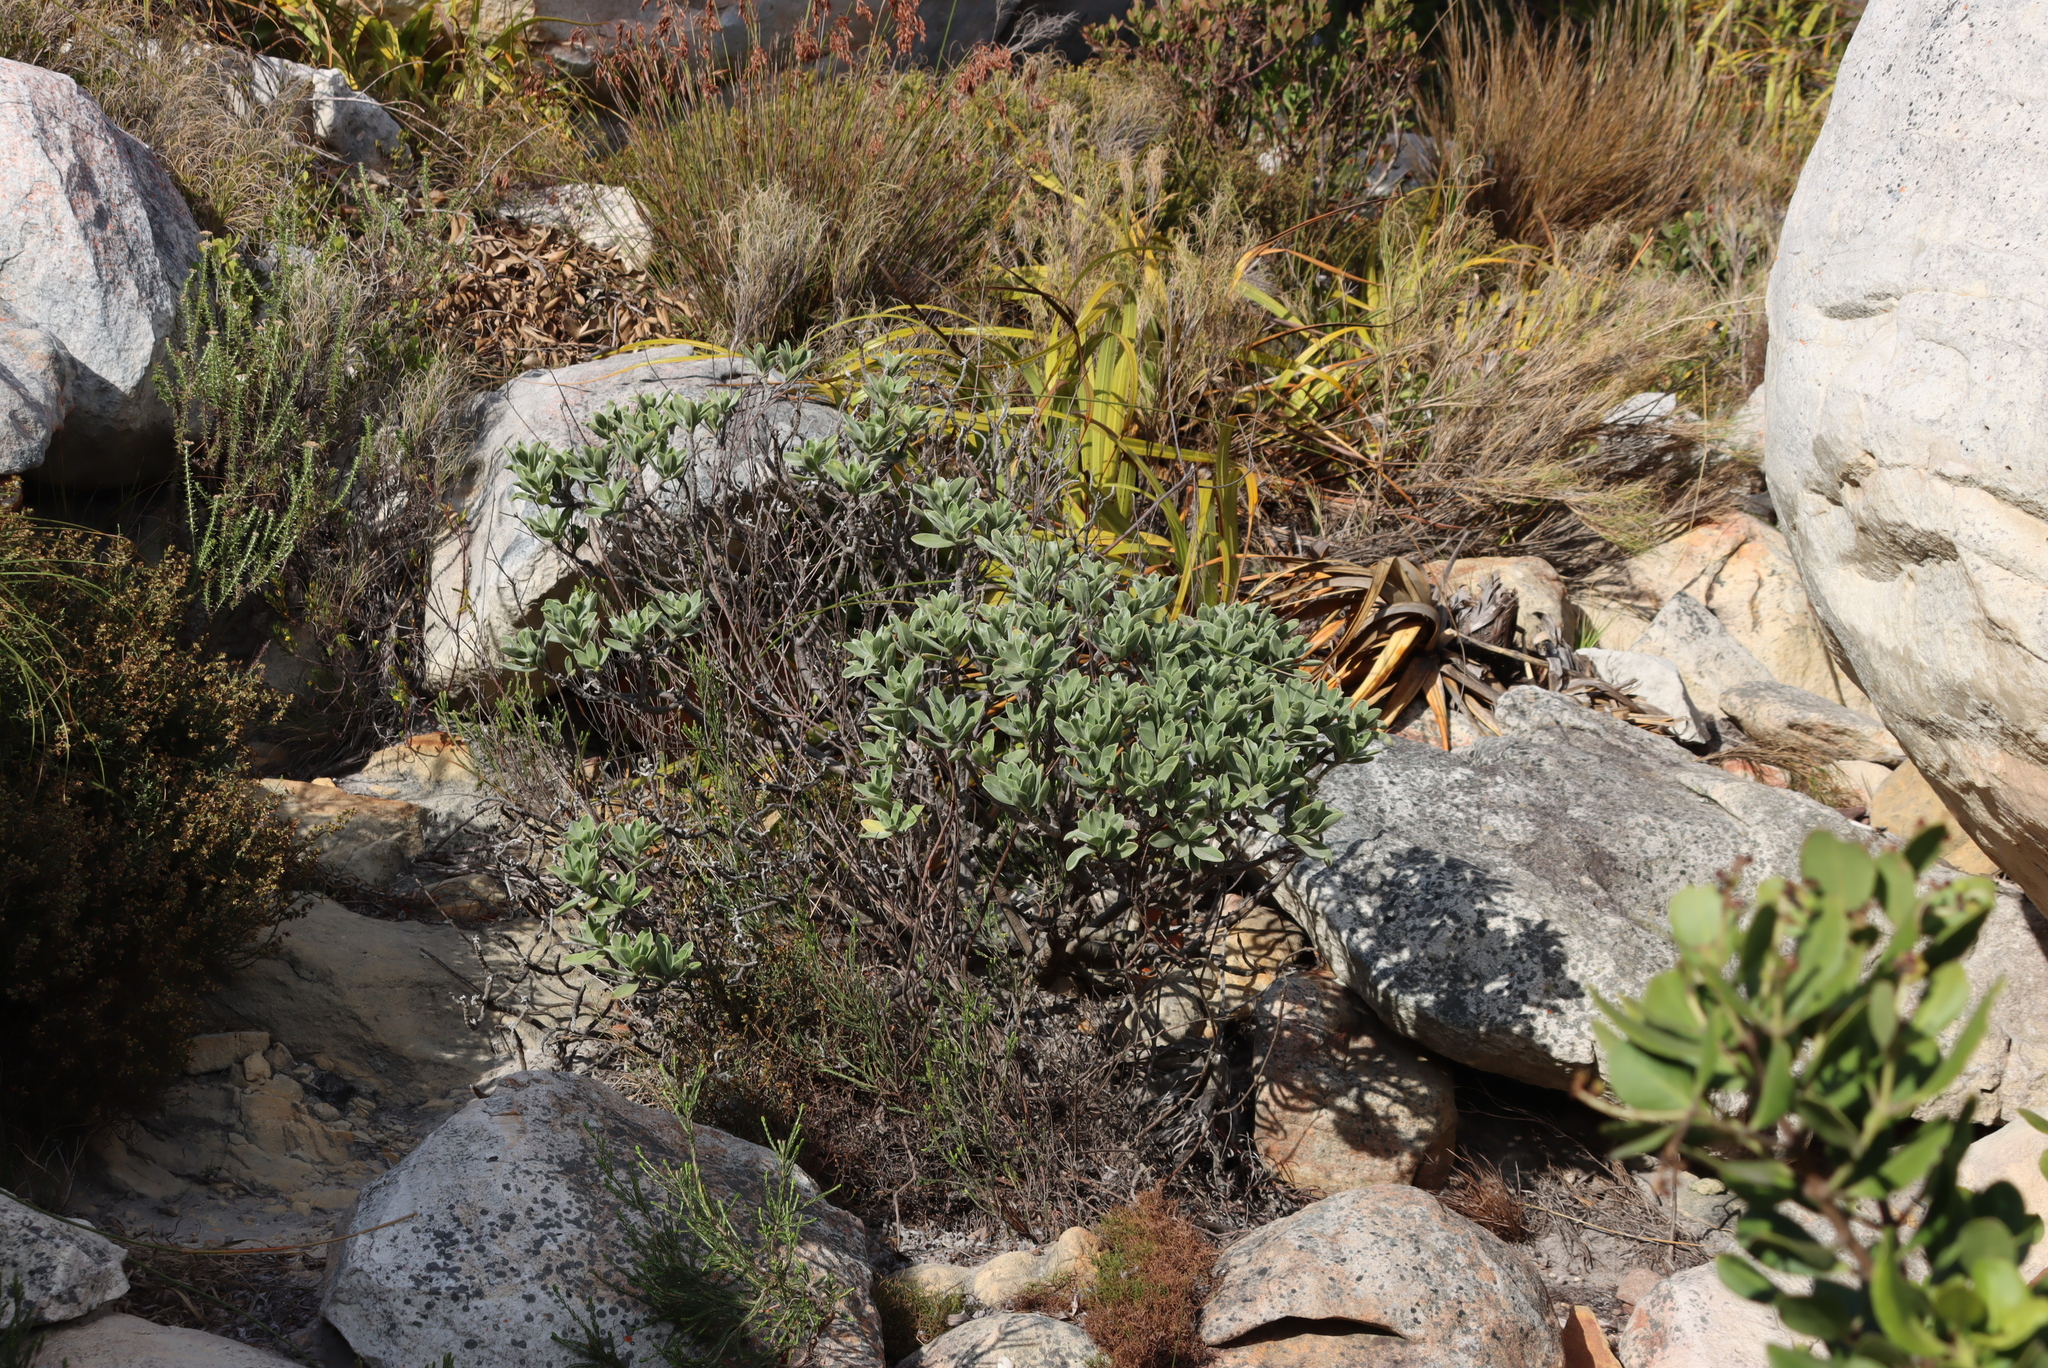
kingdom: Plantae
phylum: Tracheophyta
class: Magnoliopsida
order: Boraginales
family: Boraginaceae
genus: Lobostemon
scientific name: Lobostemon montanus
